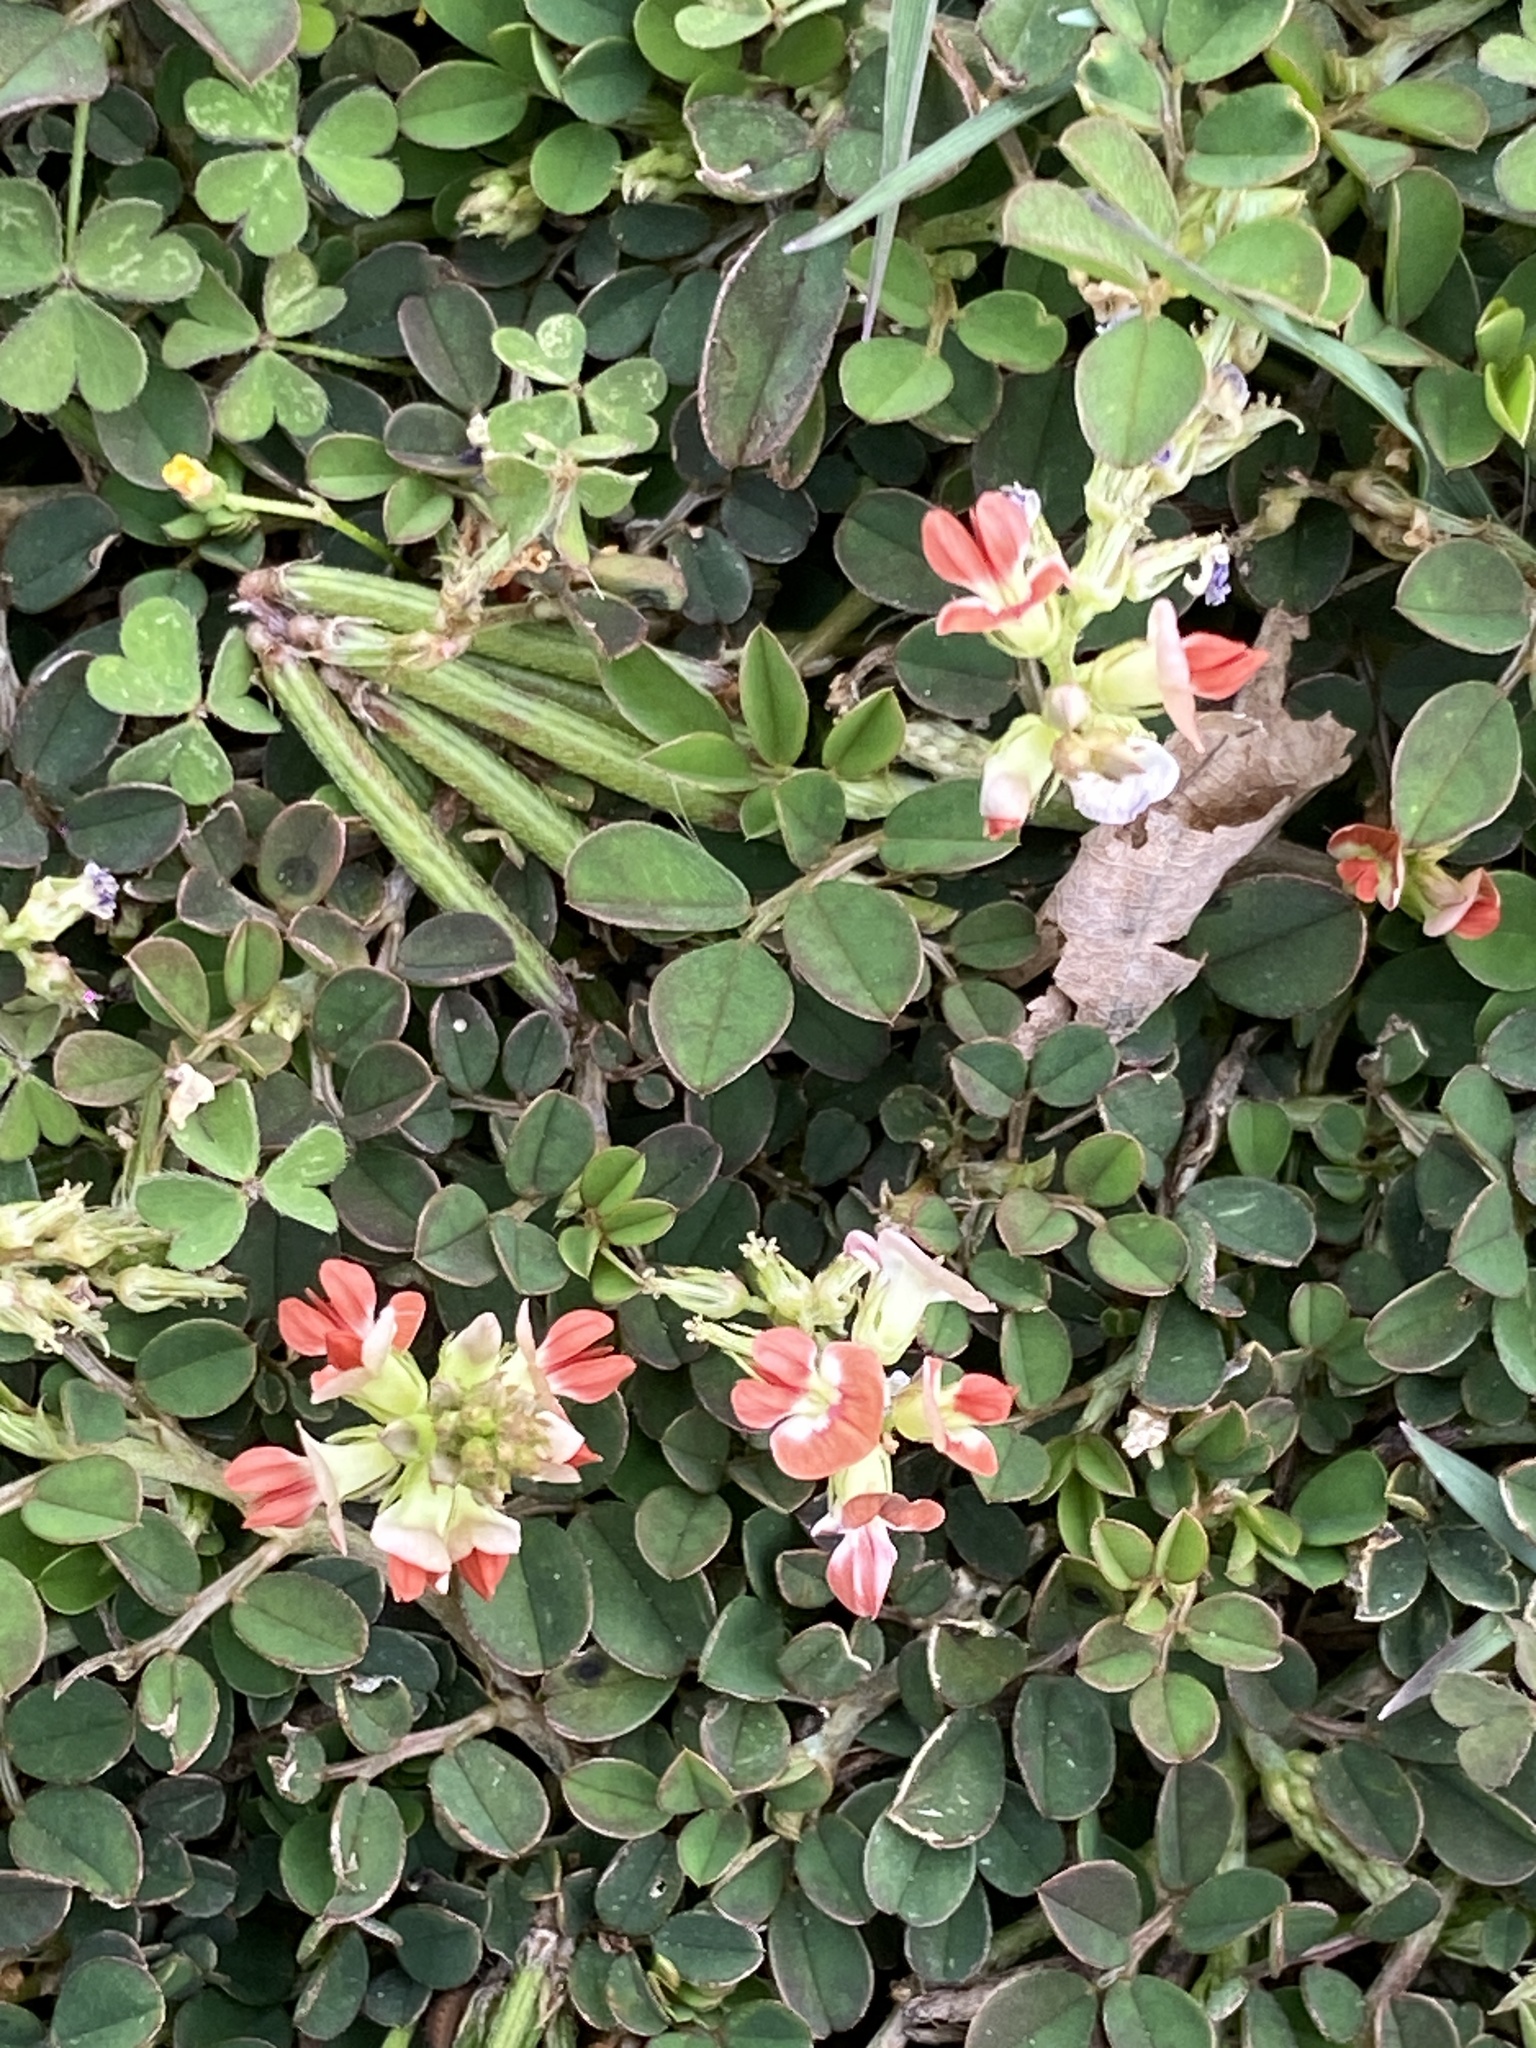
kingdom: Plantae
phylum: Tracheophyta
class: Magnoliopsida
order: Fabales
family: Fabaceae
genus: Indigofera
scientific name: Indigofera spicata
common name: Creeping indigo
